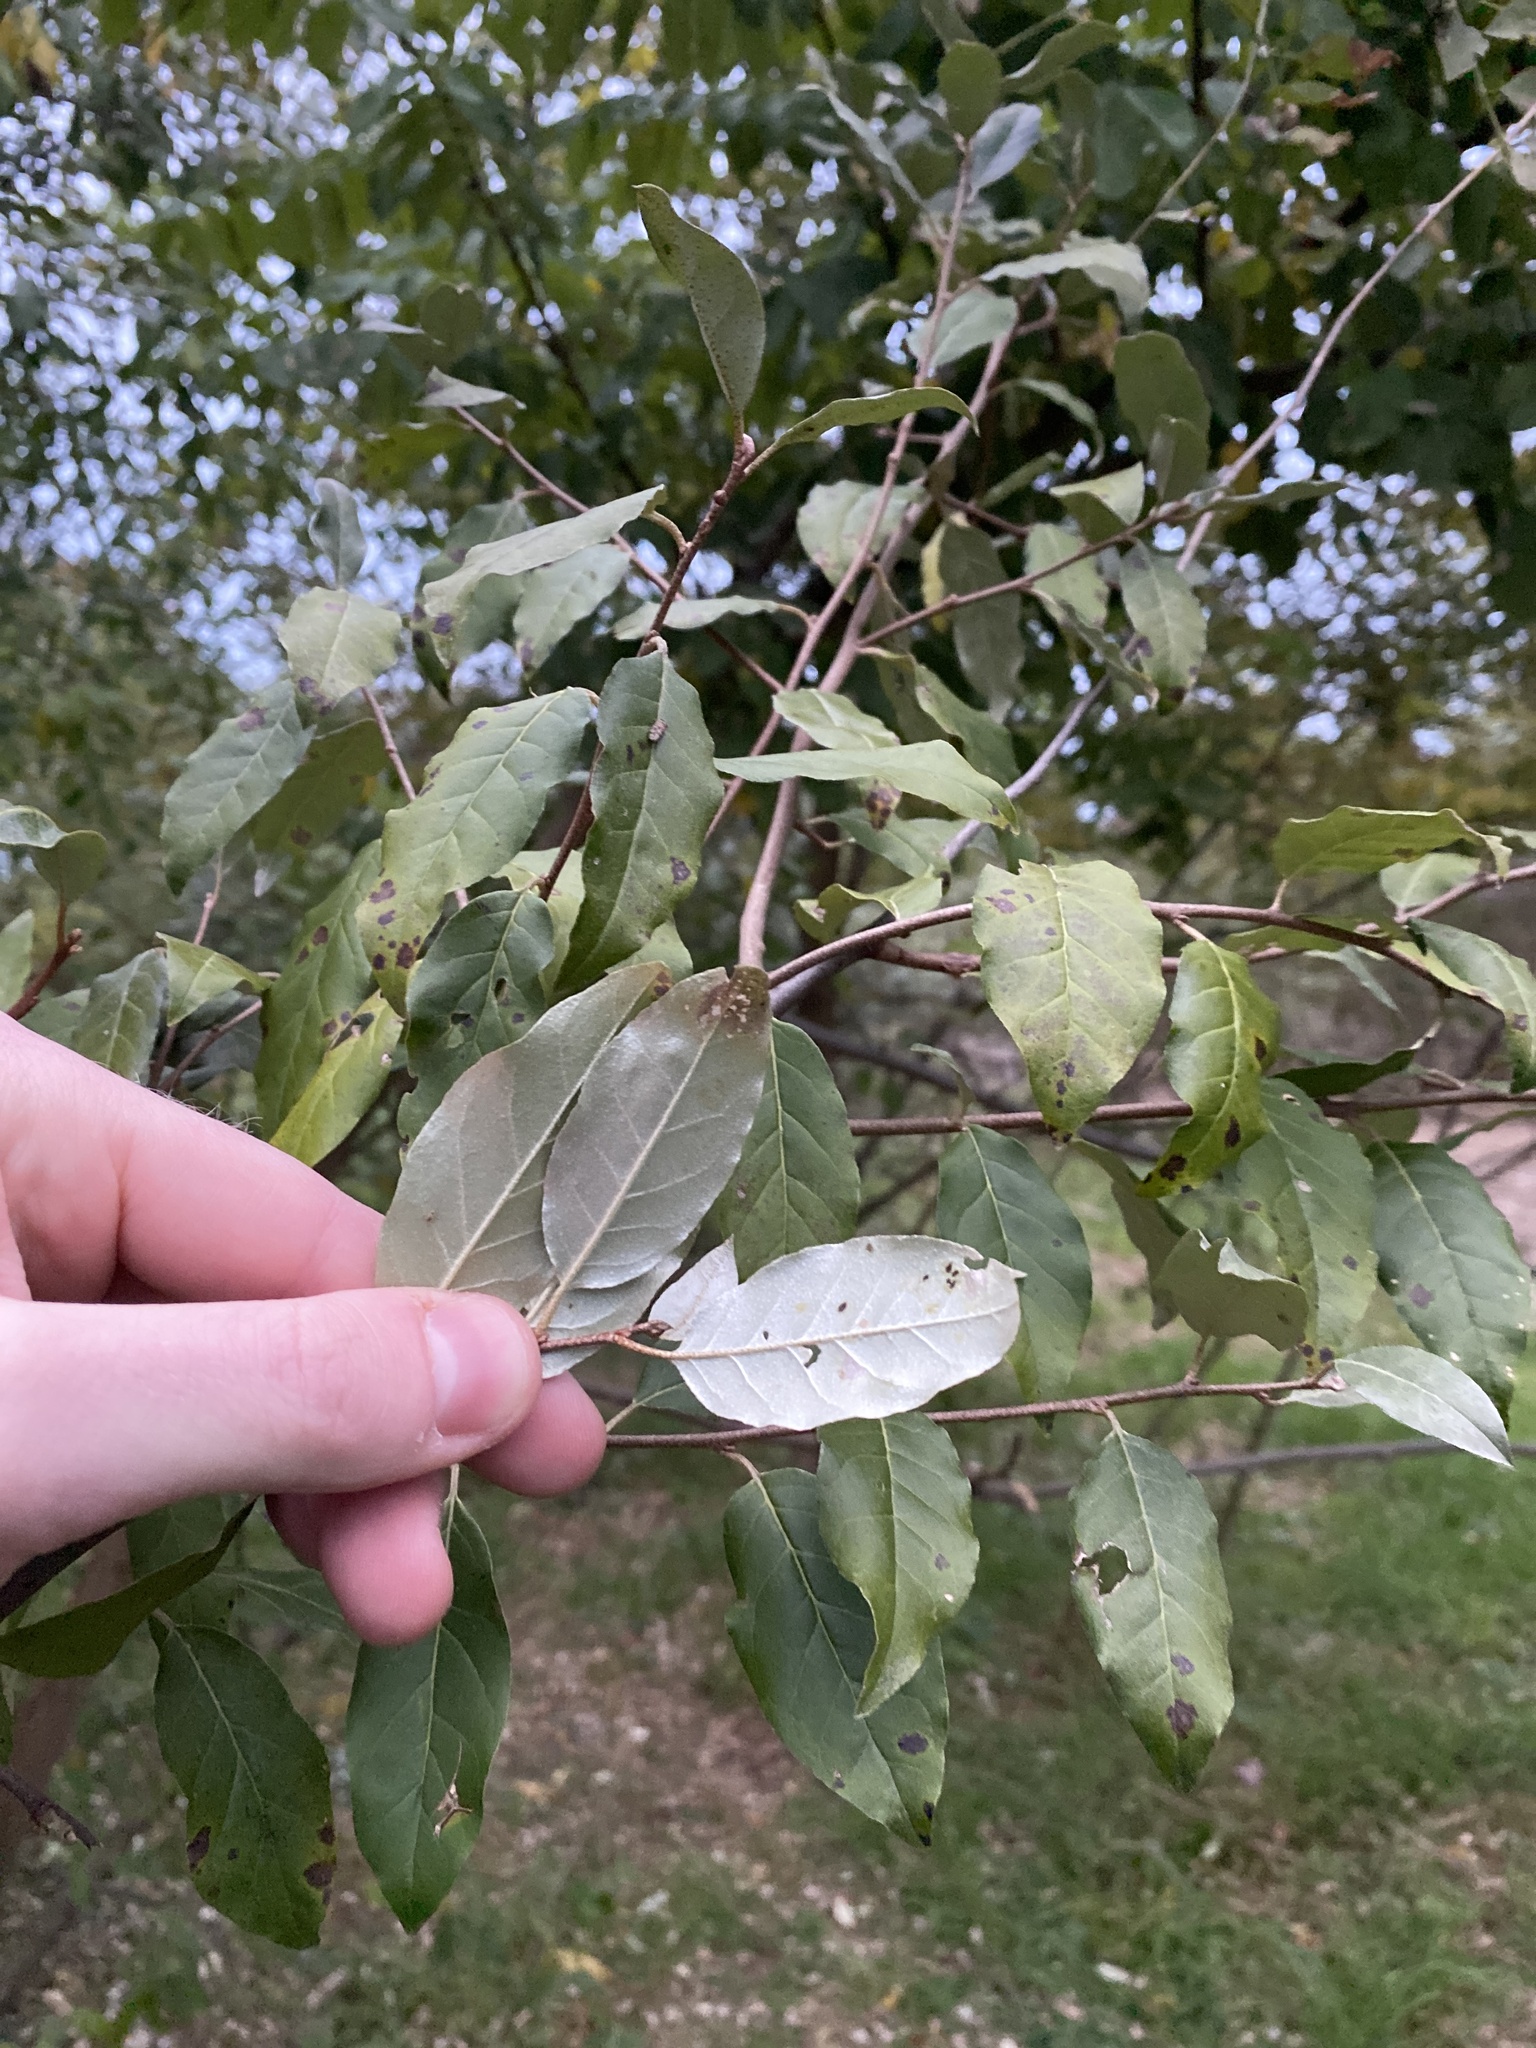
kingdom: Plantae
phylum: Tracheophyta
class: Magnoliopsida
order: Rosales
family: Elaeagnaceae
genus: Elaeagnus
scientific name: Elaeagnus umbellata
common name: Autumn olive
